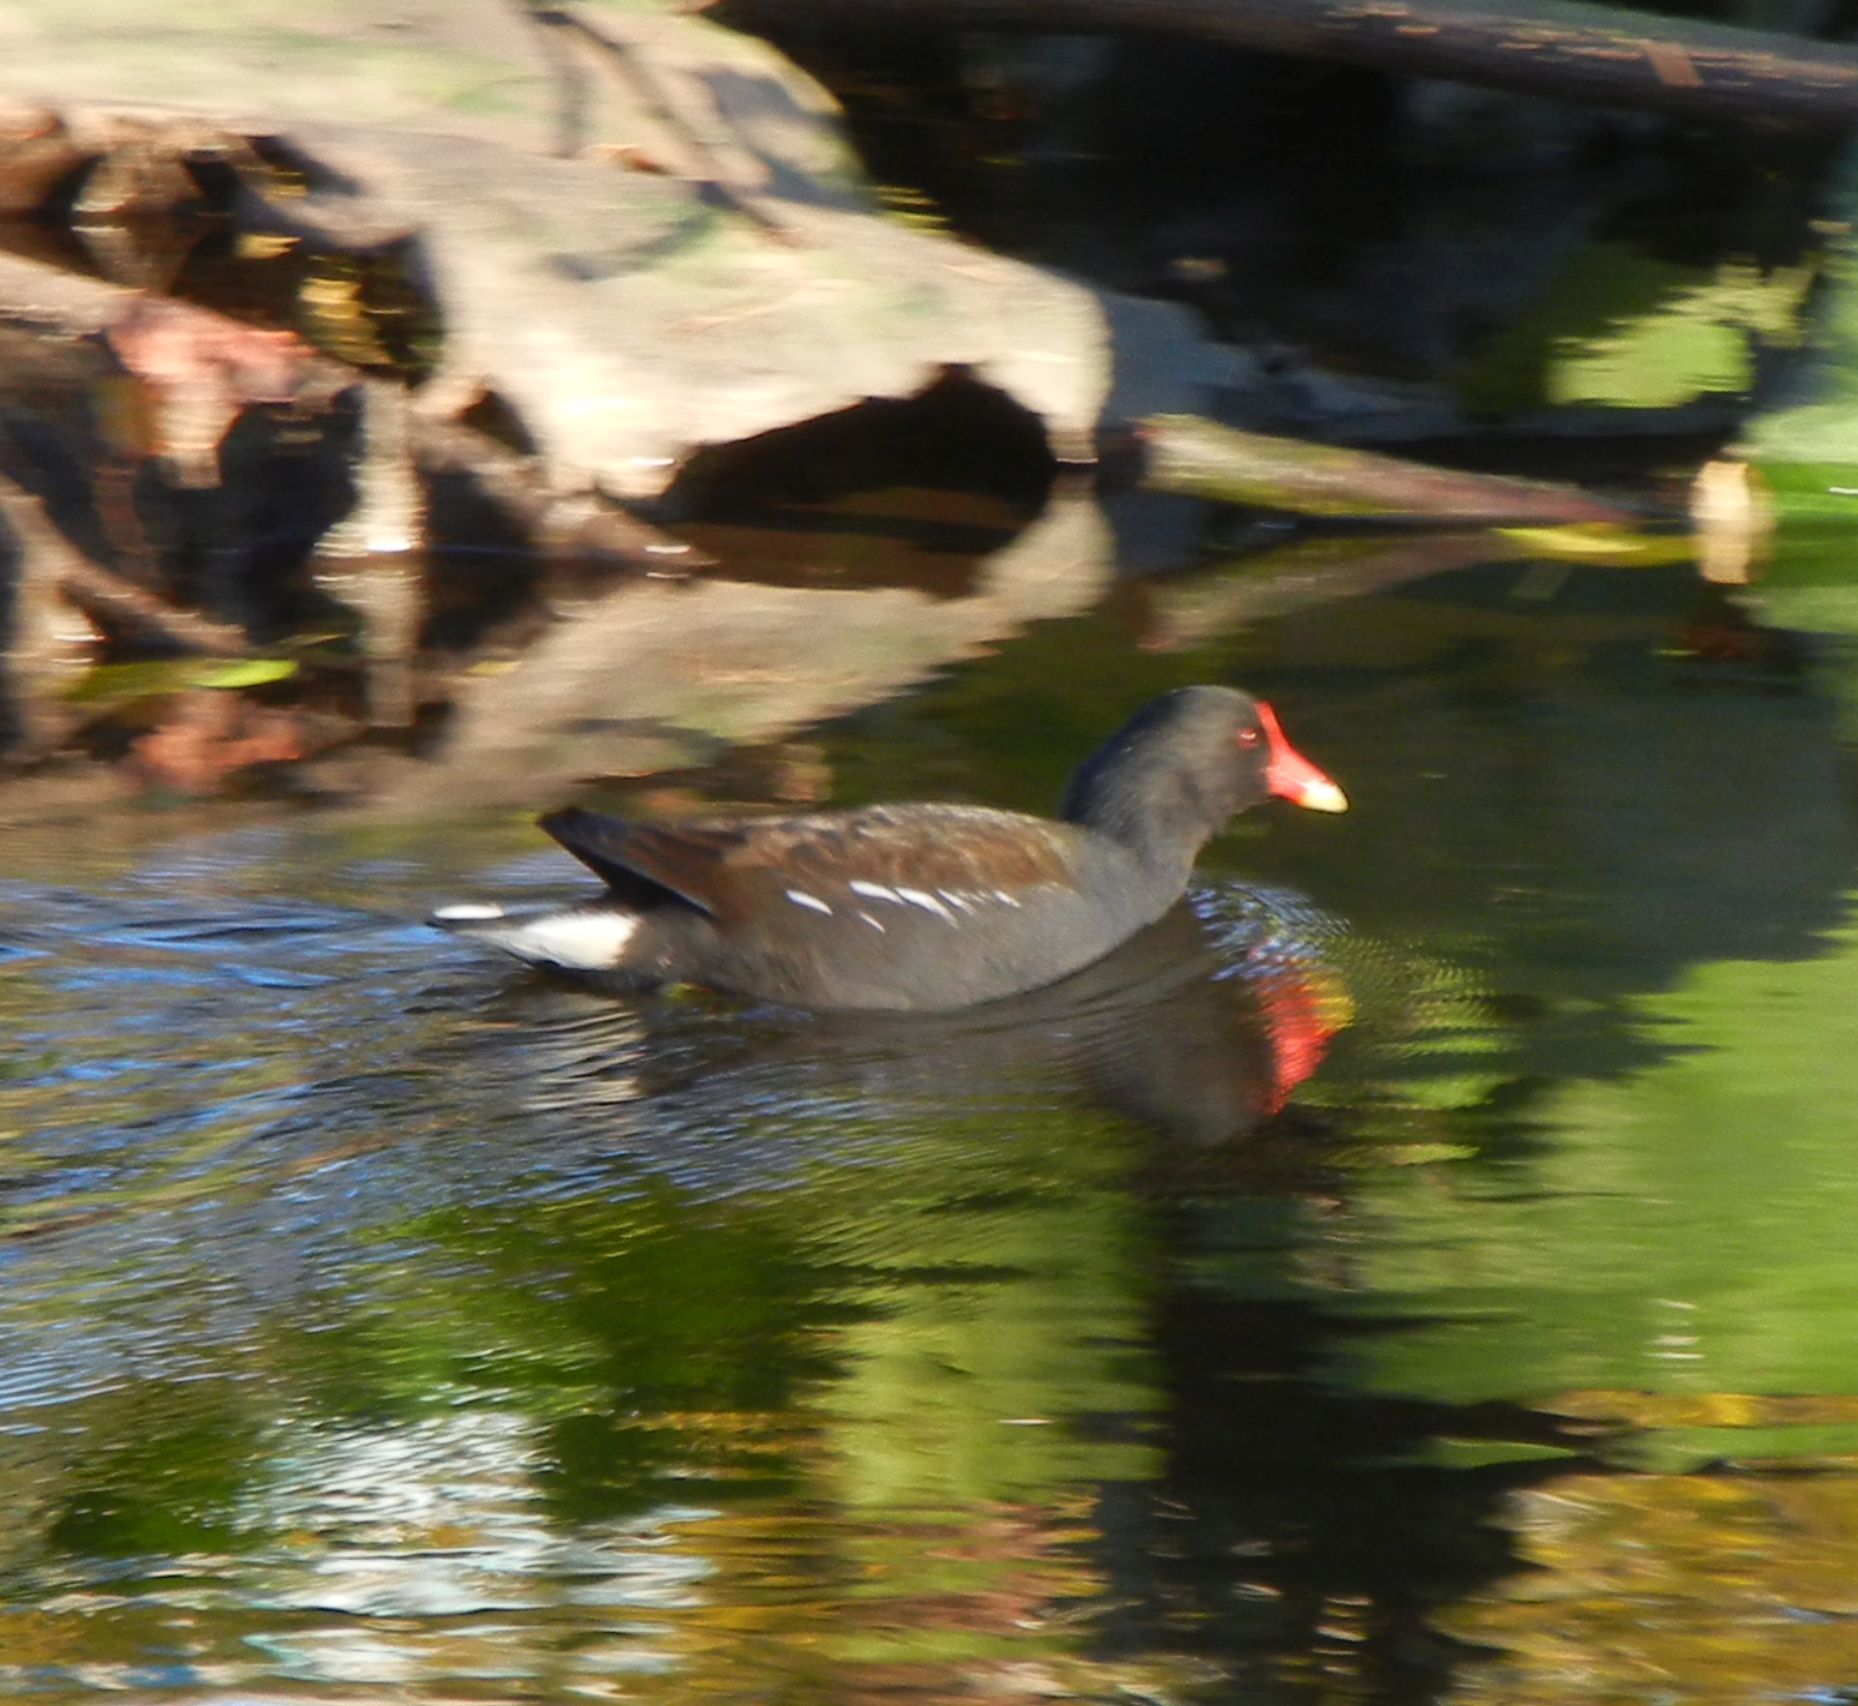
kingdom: Animalia
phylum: Chordata
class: Aves
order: Gruiformes
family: Rallidae
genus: Gallinula
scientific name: Gallinula chloropus
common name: Common moorhen
